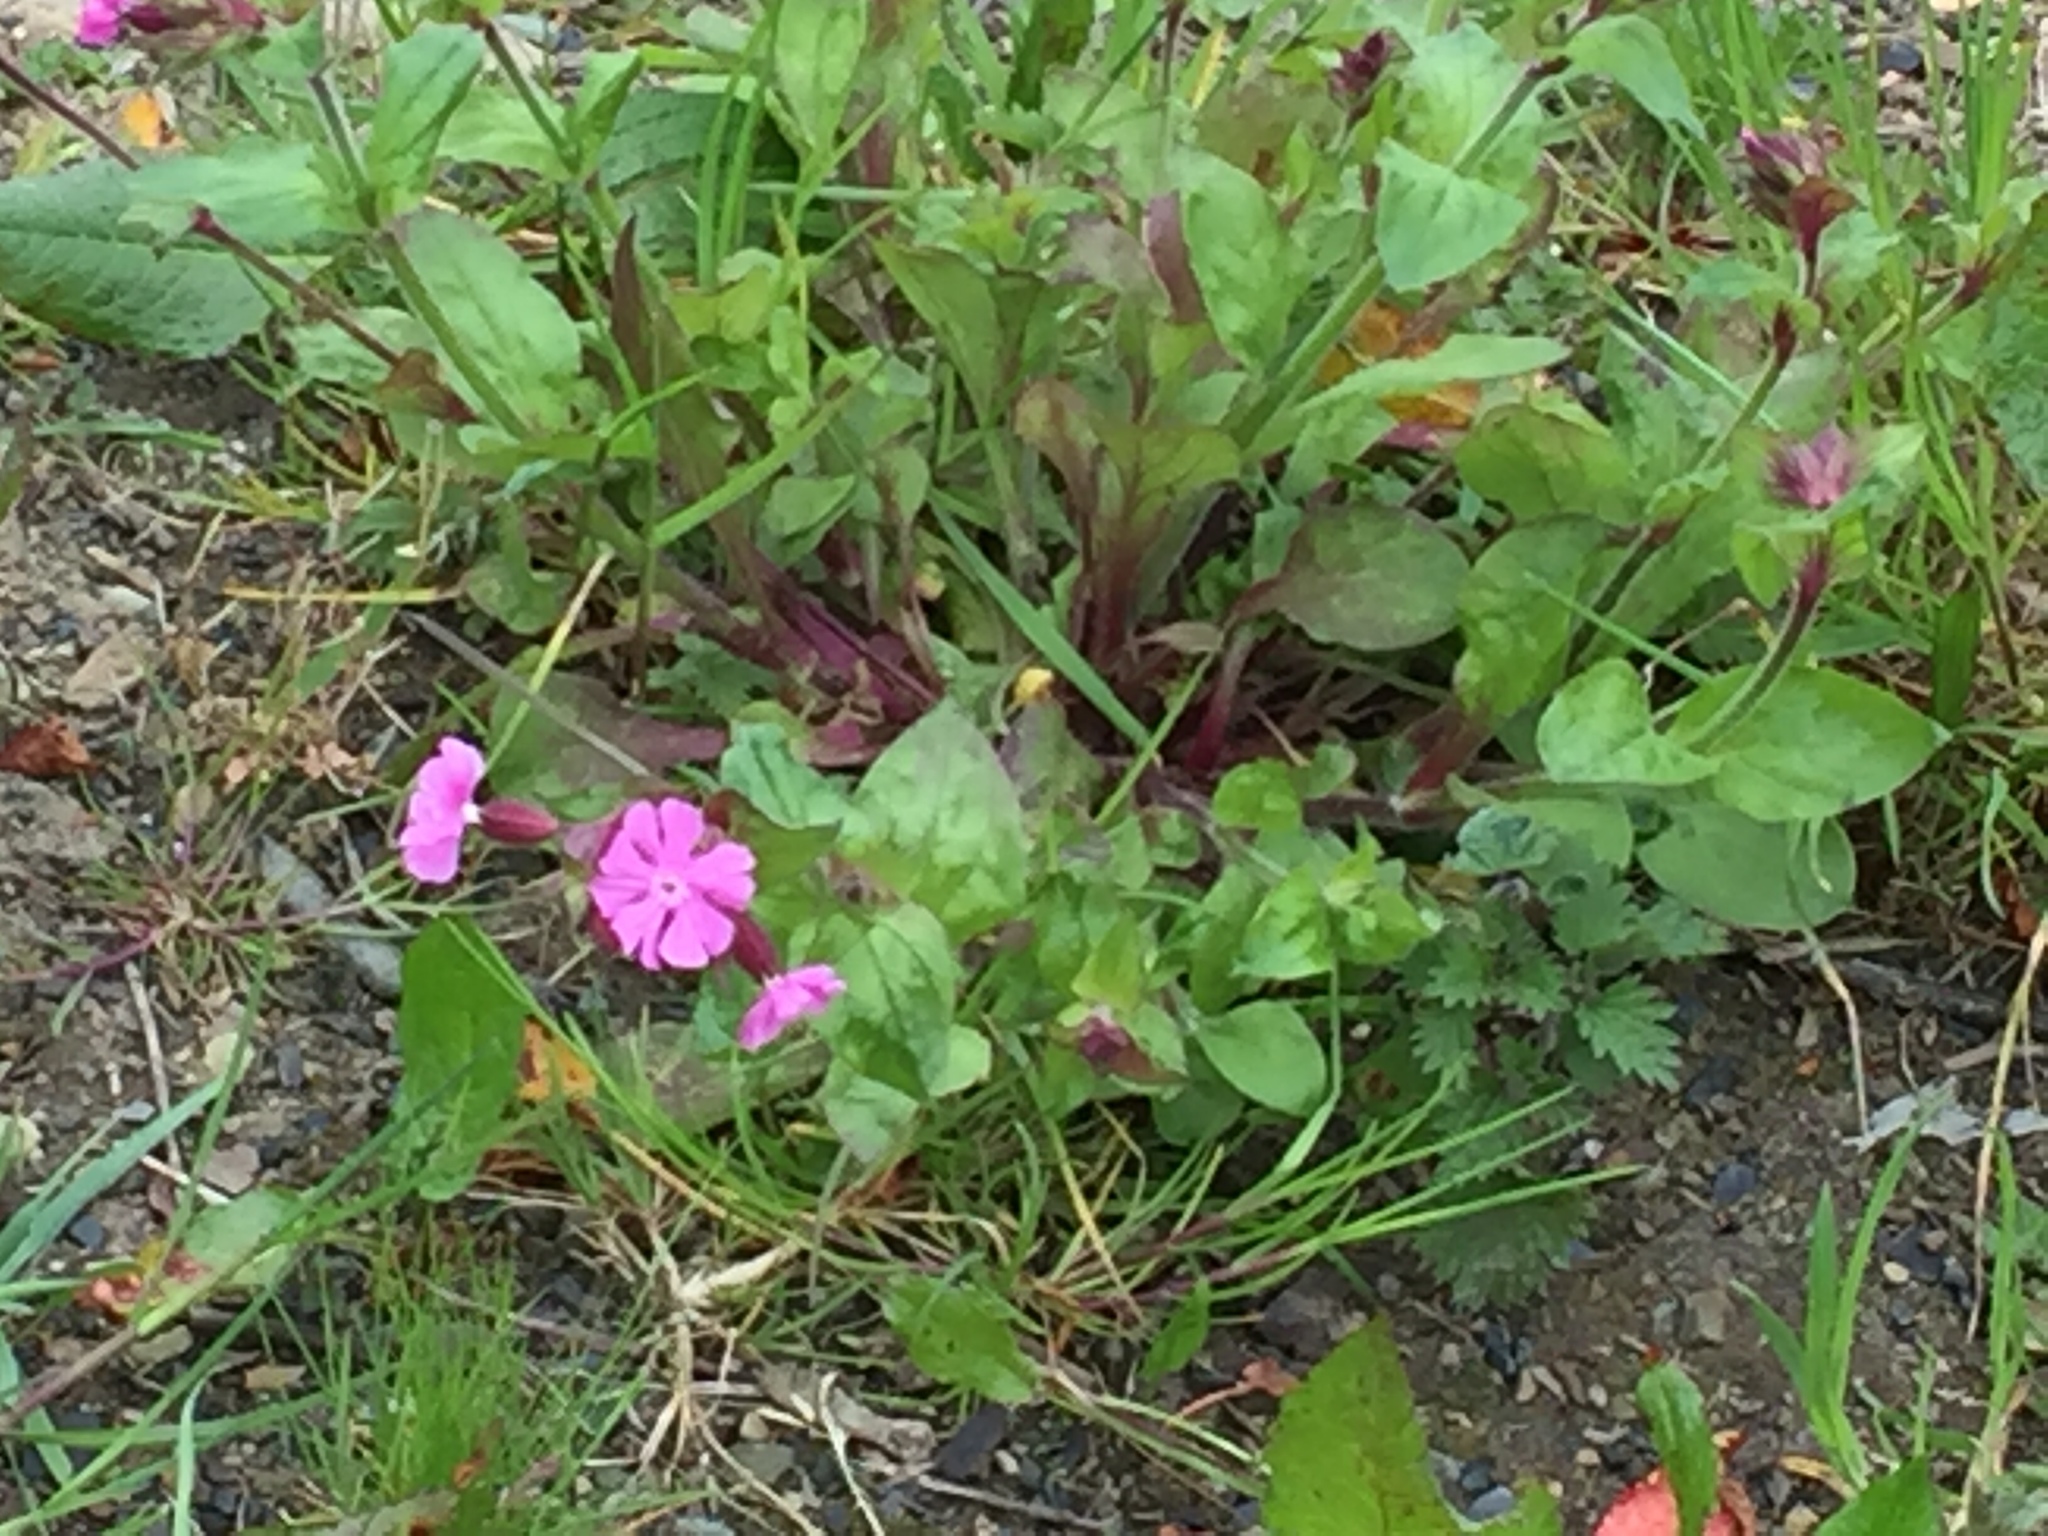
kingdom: Plantae
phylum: Tracheophyta
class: Magnoliopsida
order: Caryophyllales
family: Caryophyllaceae
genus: Silene
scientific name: Silene dioica
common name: Red campion
